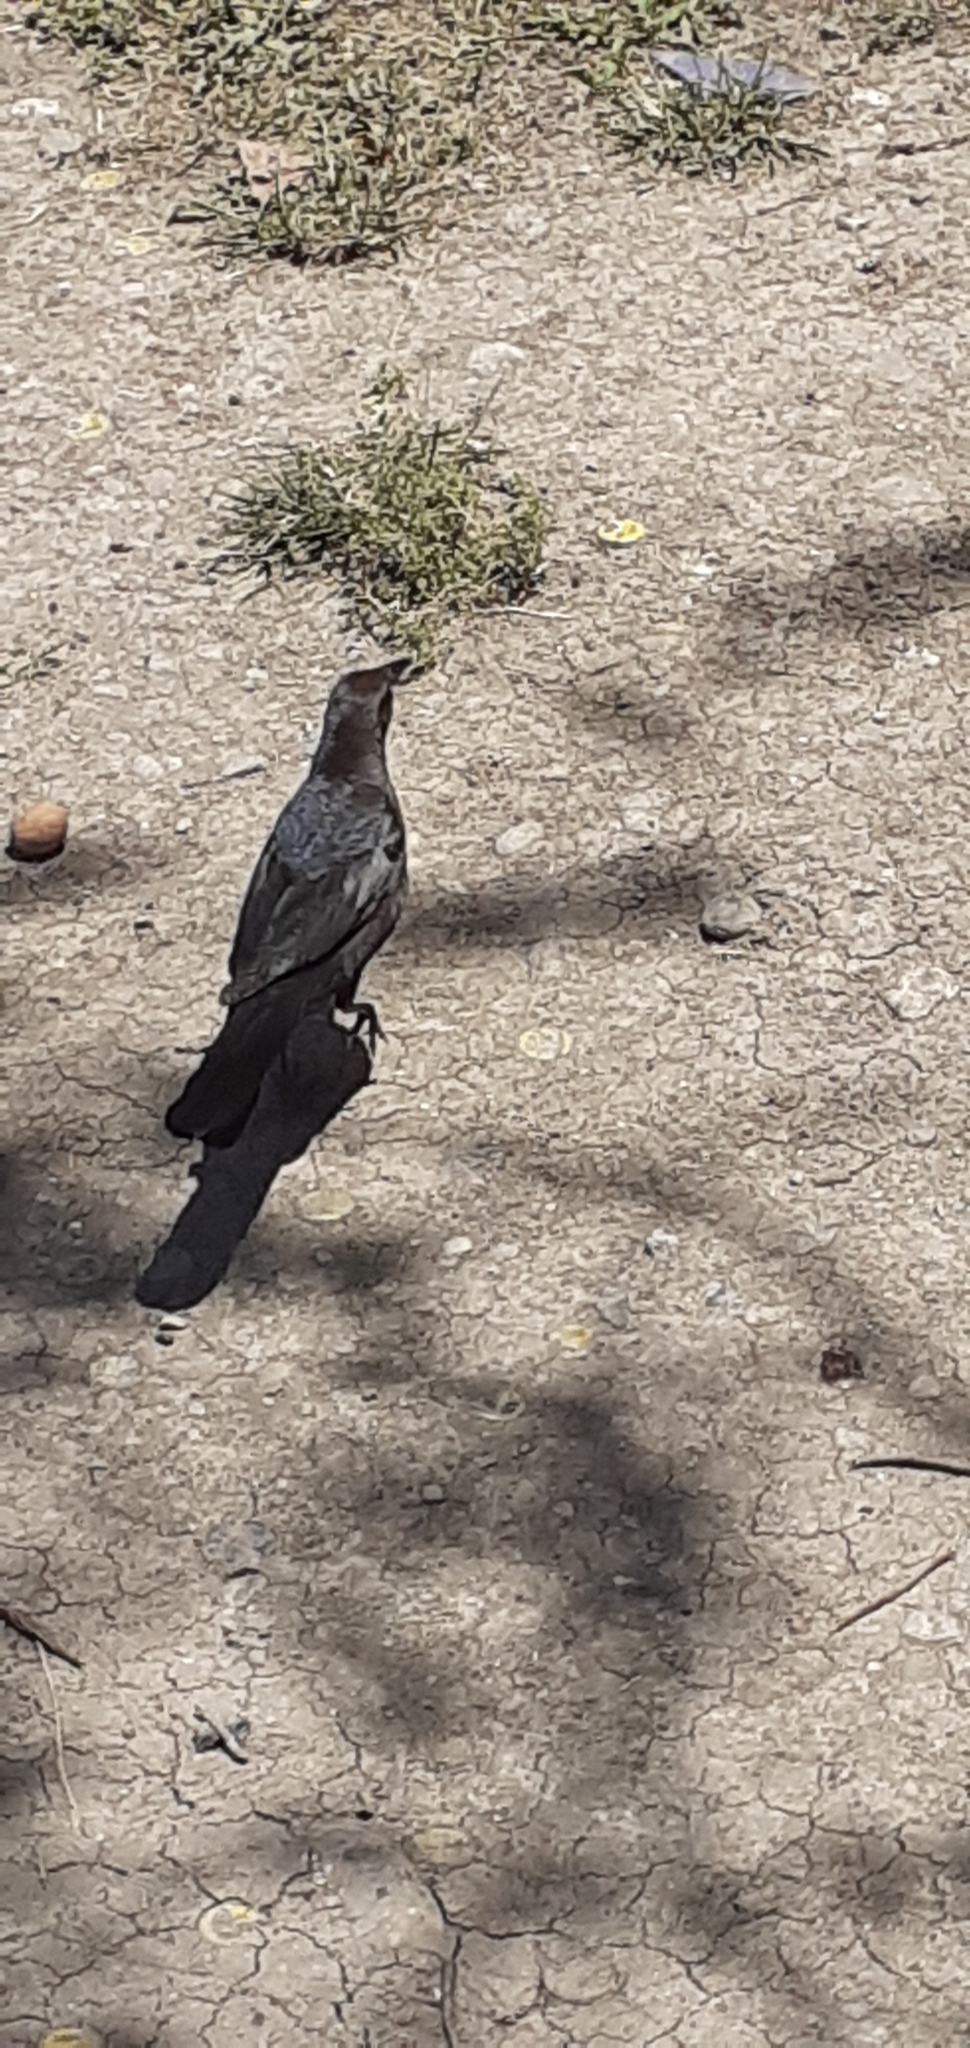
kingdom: Animalia
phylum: Chordata
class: Aves
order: Passeriformes
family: Icteridae
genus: Quiscalus
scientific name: Quiscalus mexicanus
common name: Great-tailed grackle
